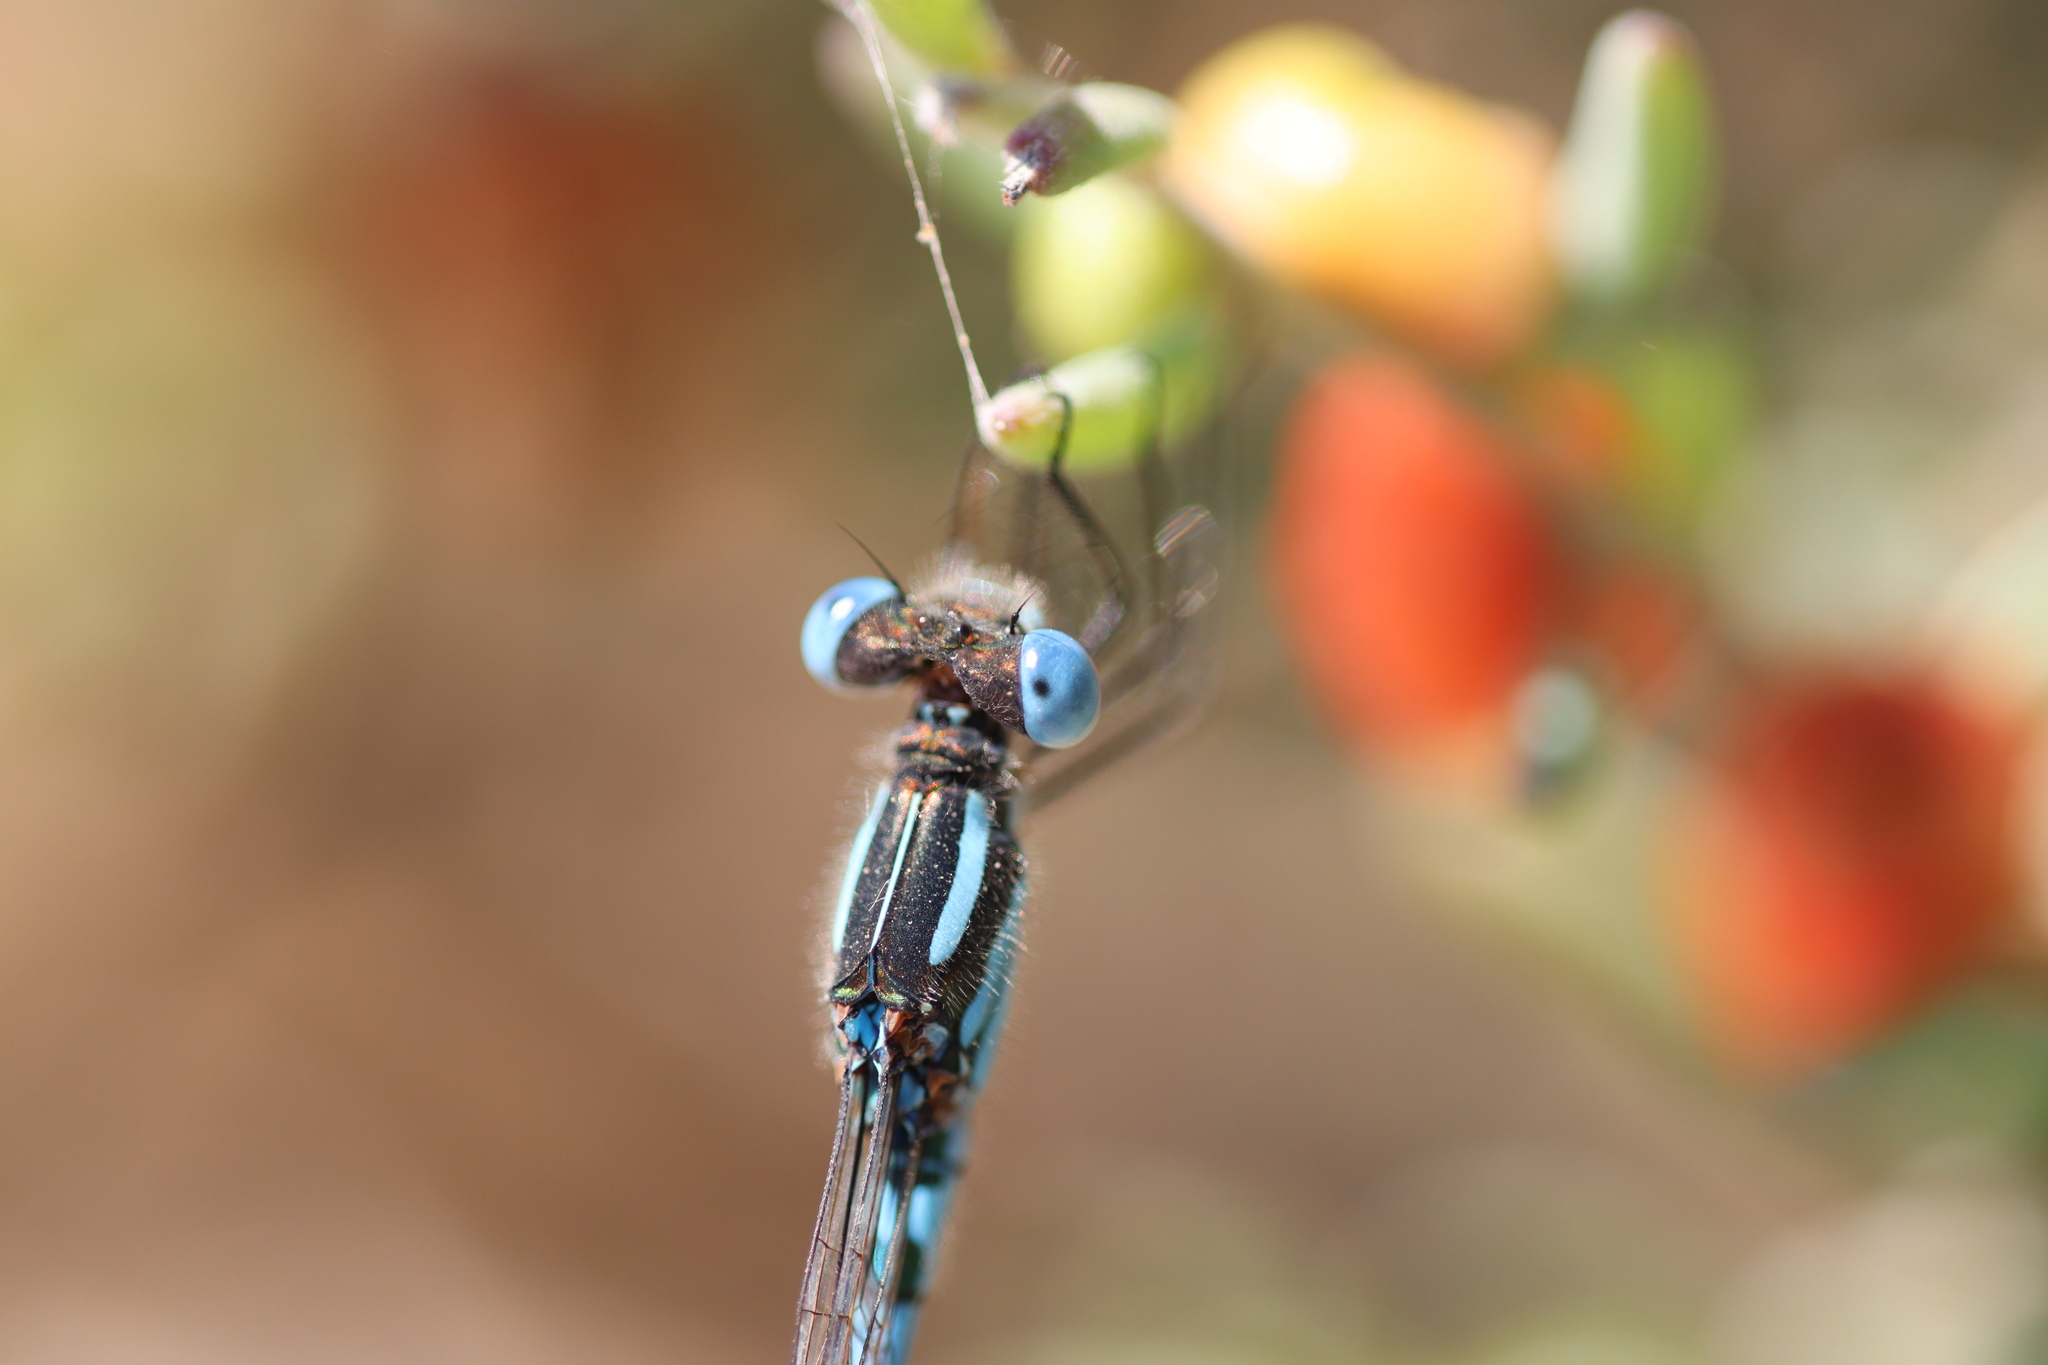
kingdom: Animalia
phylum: Arthropoda
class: Insecta
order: Odonata
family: Lestidae
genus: Austrolestes
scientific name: Austrolestes annulosus
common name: Blue ringtail
